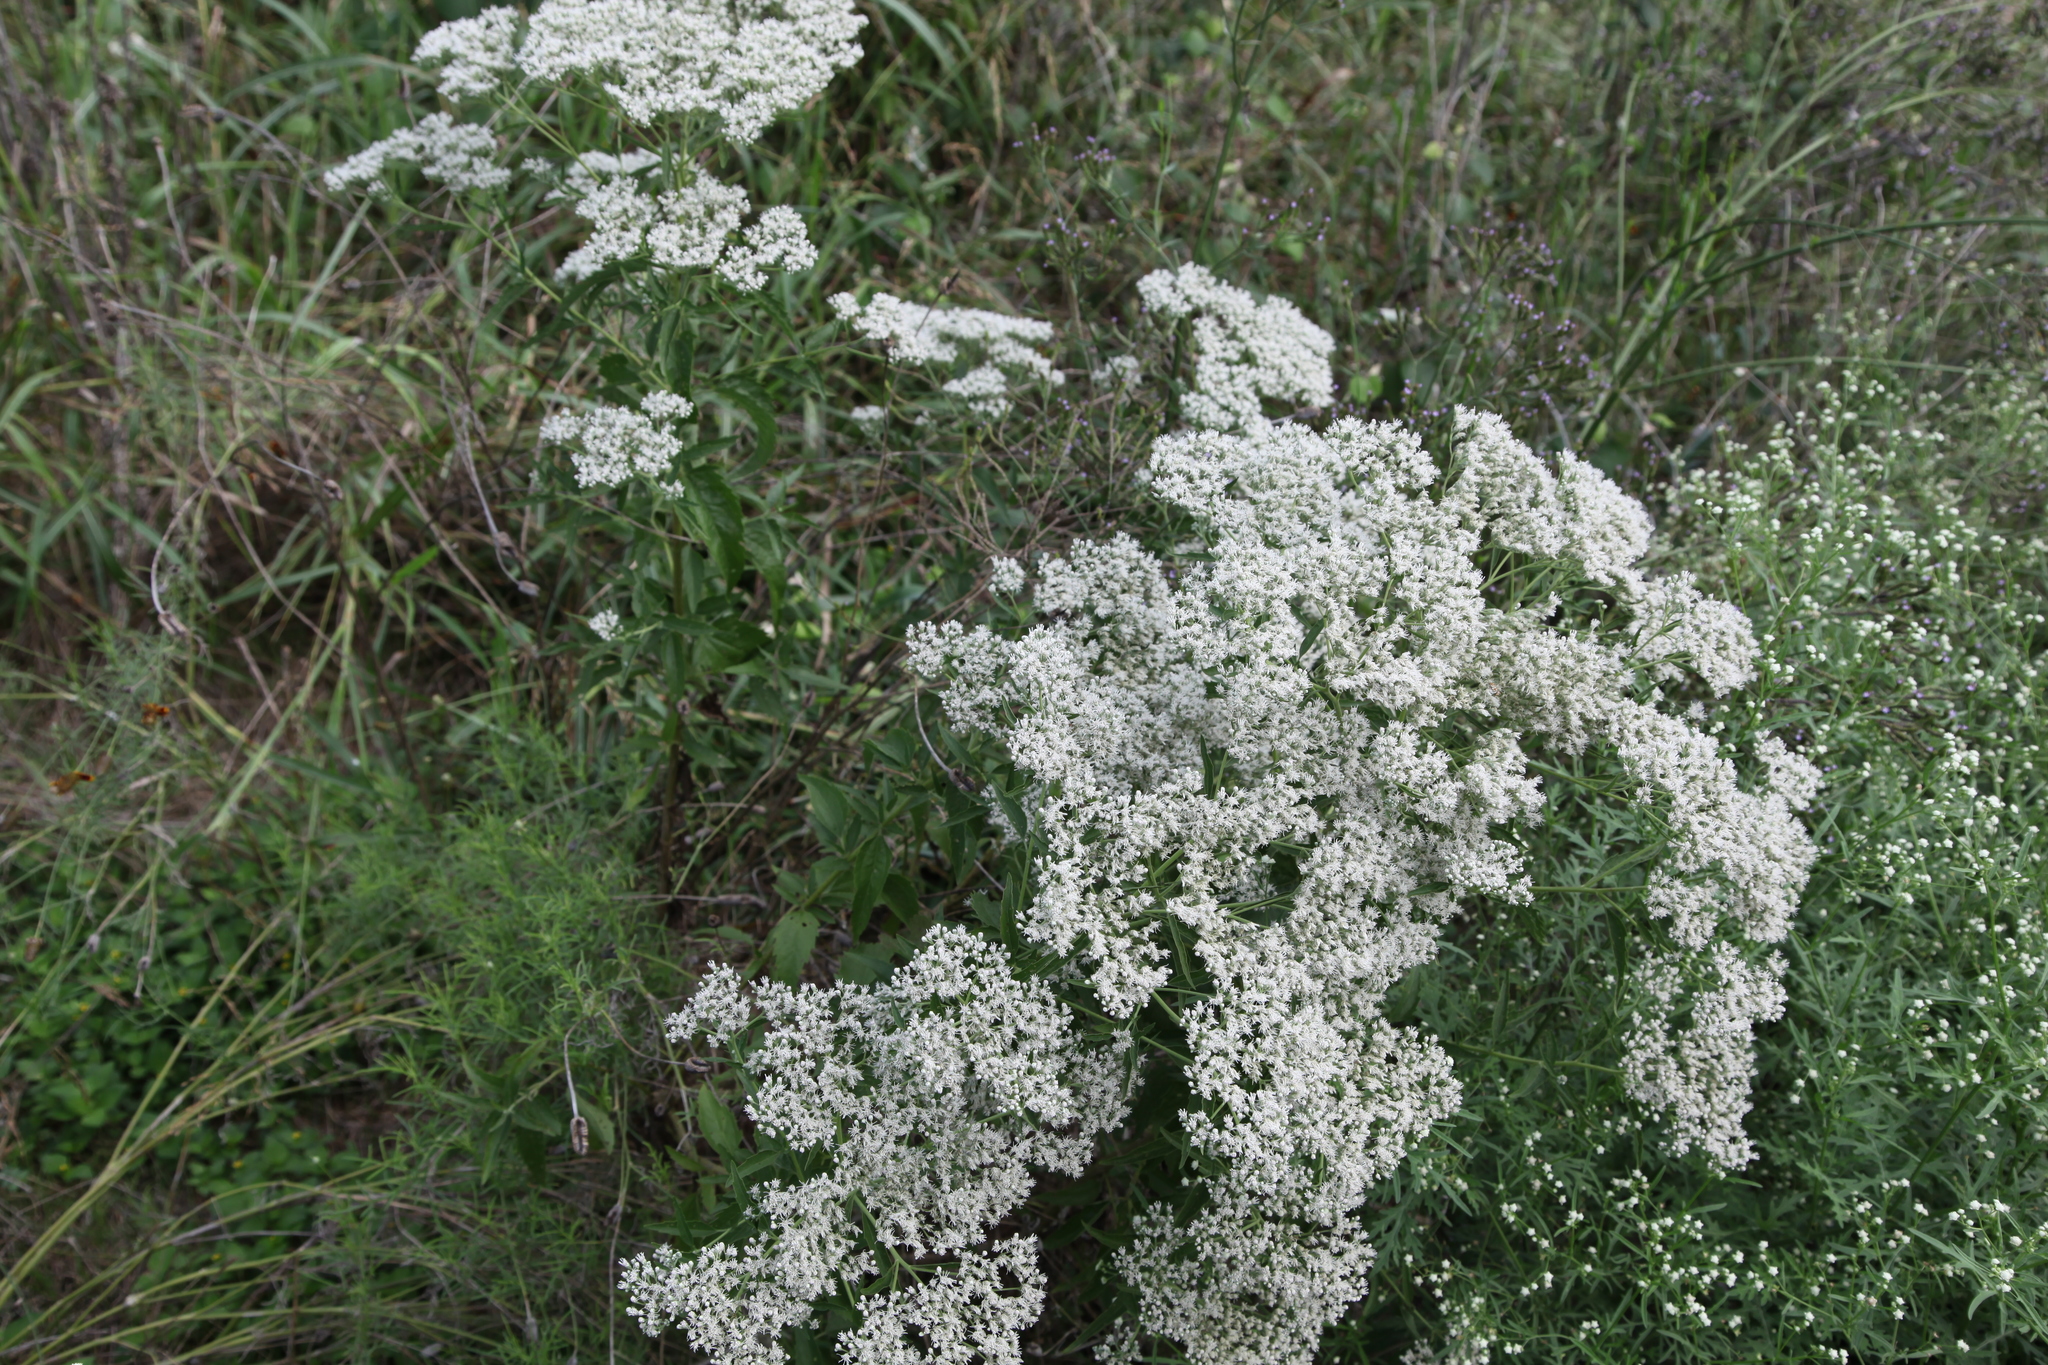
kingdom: Plantae
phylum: Tracheophyta
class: Magnoliopsida
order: Asterales
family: Asteraceae
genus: Eupatorium
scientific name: Eupatorium serotinum
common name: Late boneset
